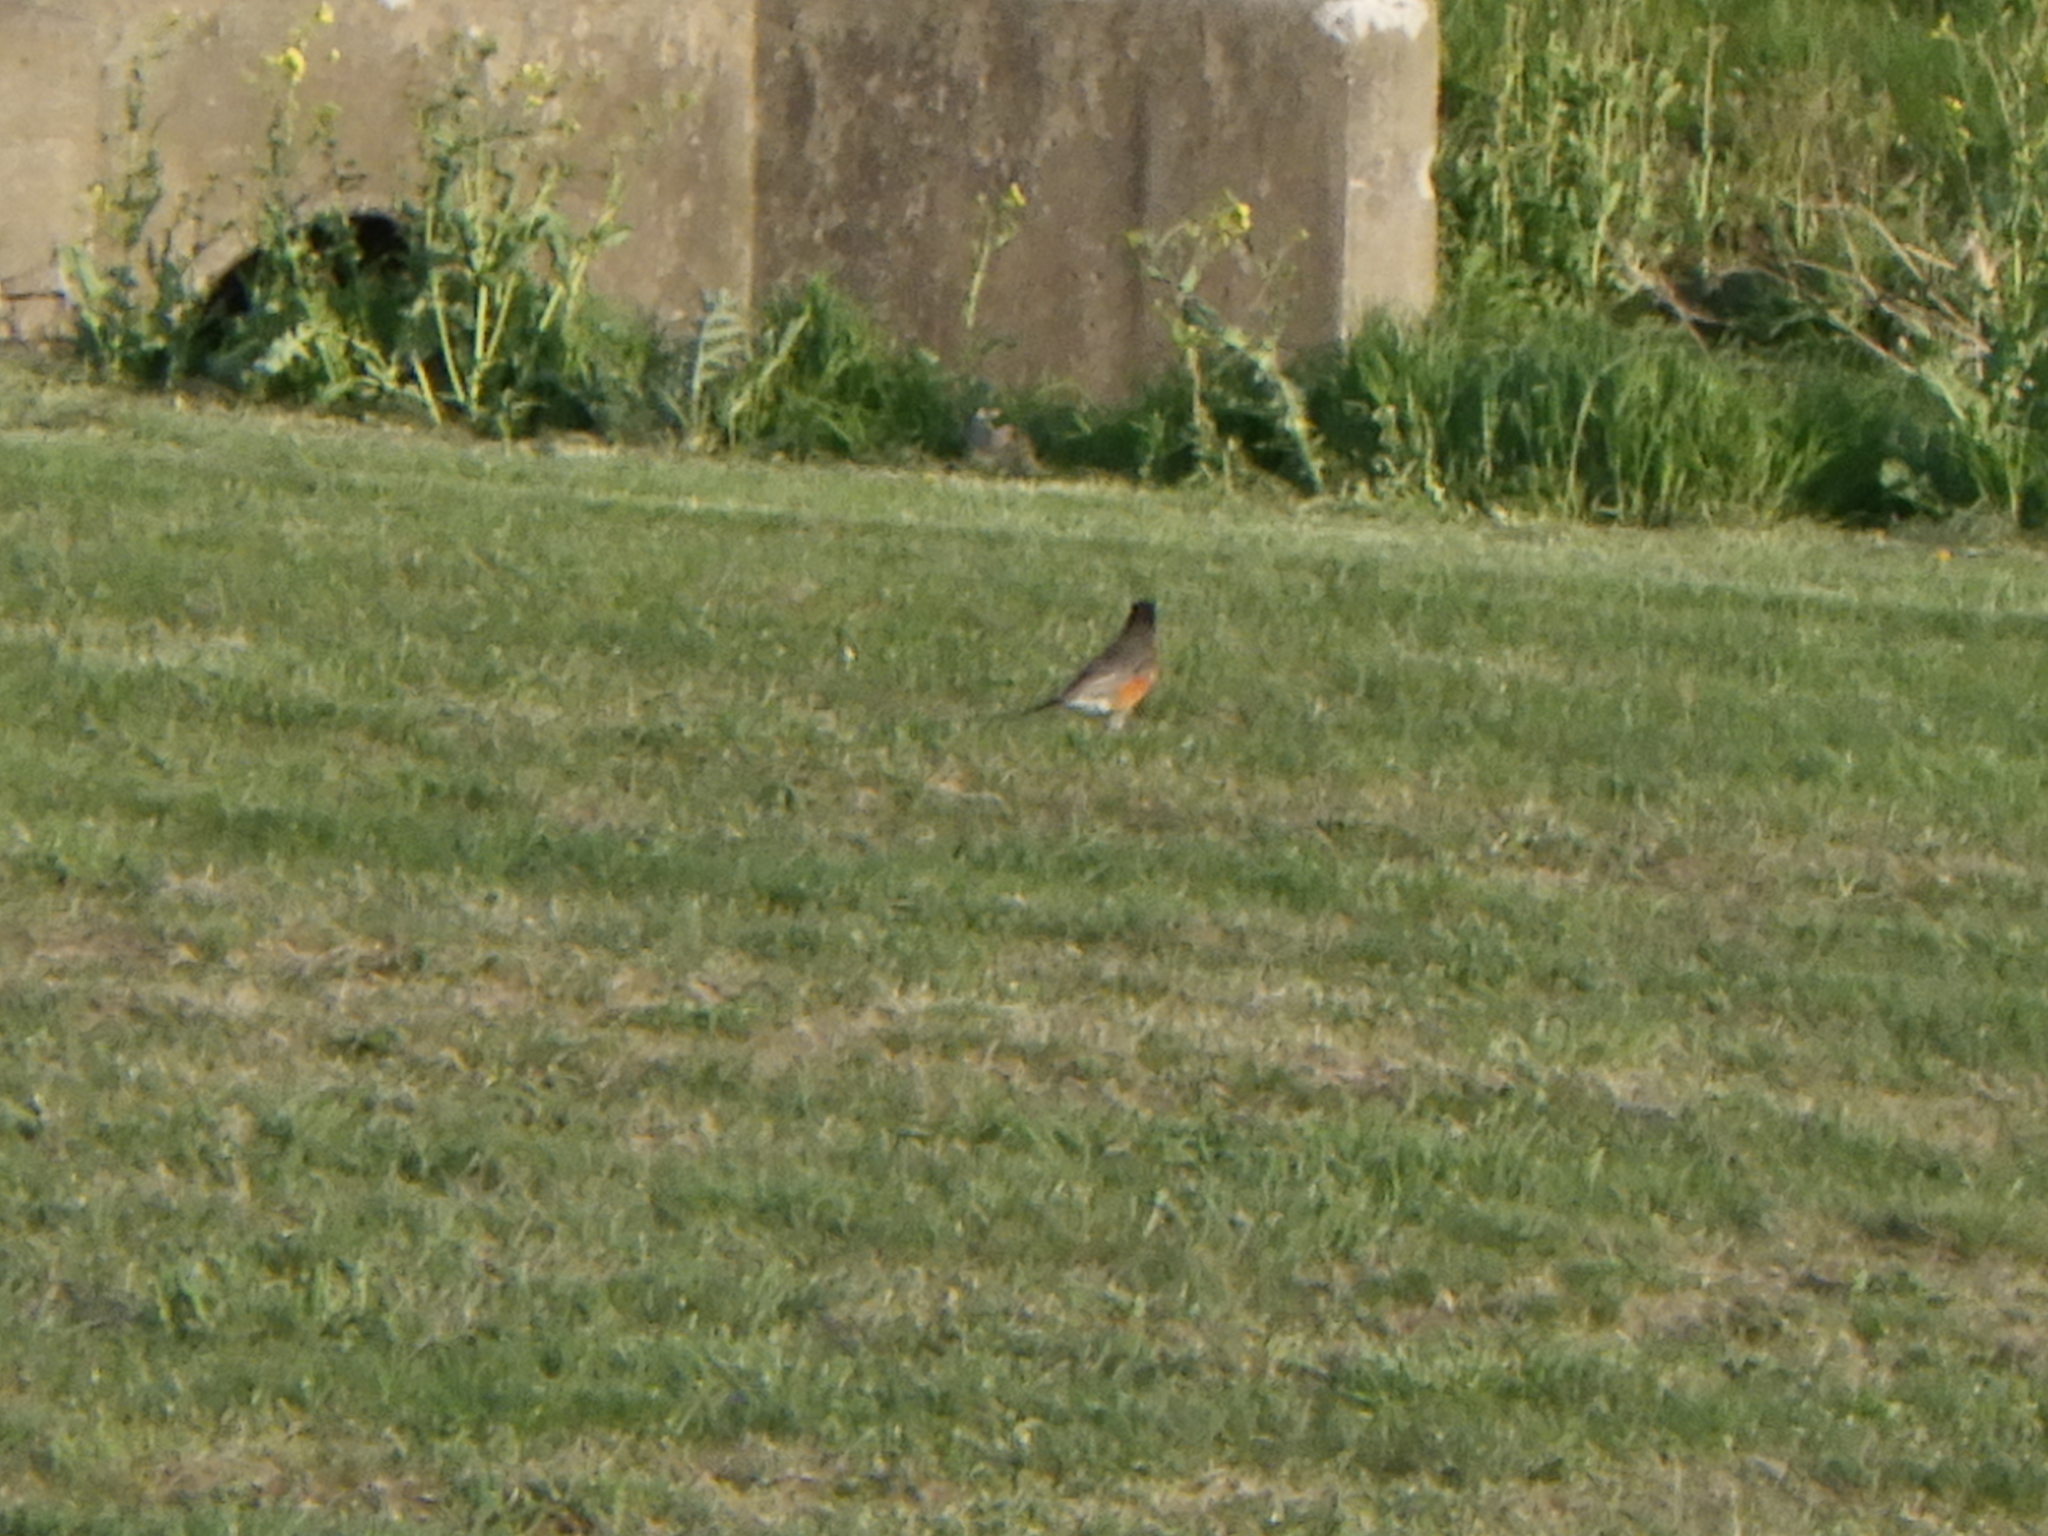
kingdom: Animalia
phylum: Chordata
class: Aves
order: Passeriformes
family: Turdidae
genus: Turdus
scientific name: Turdus migratorius
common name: American robin
